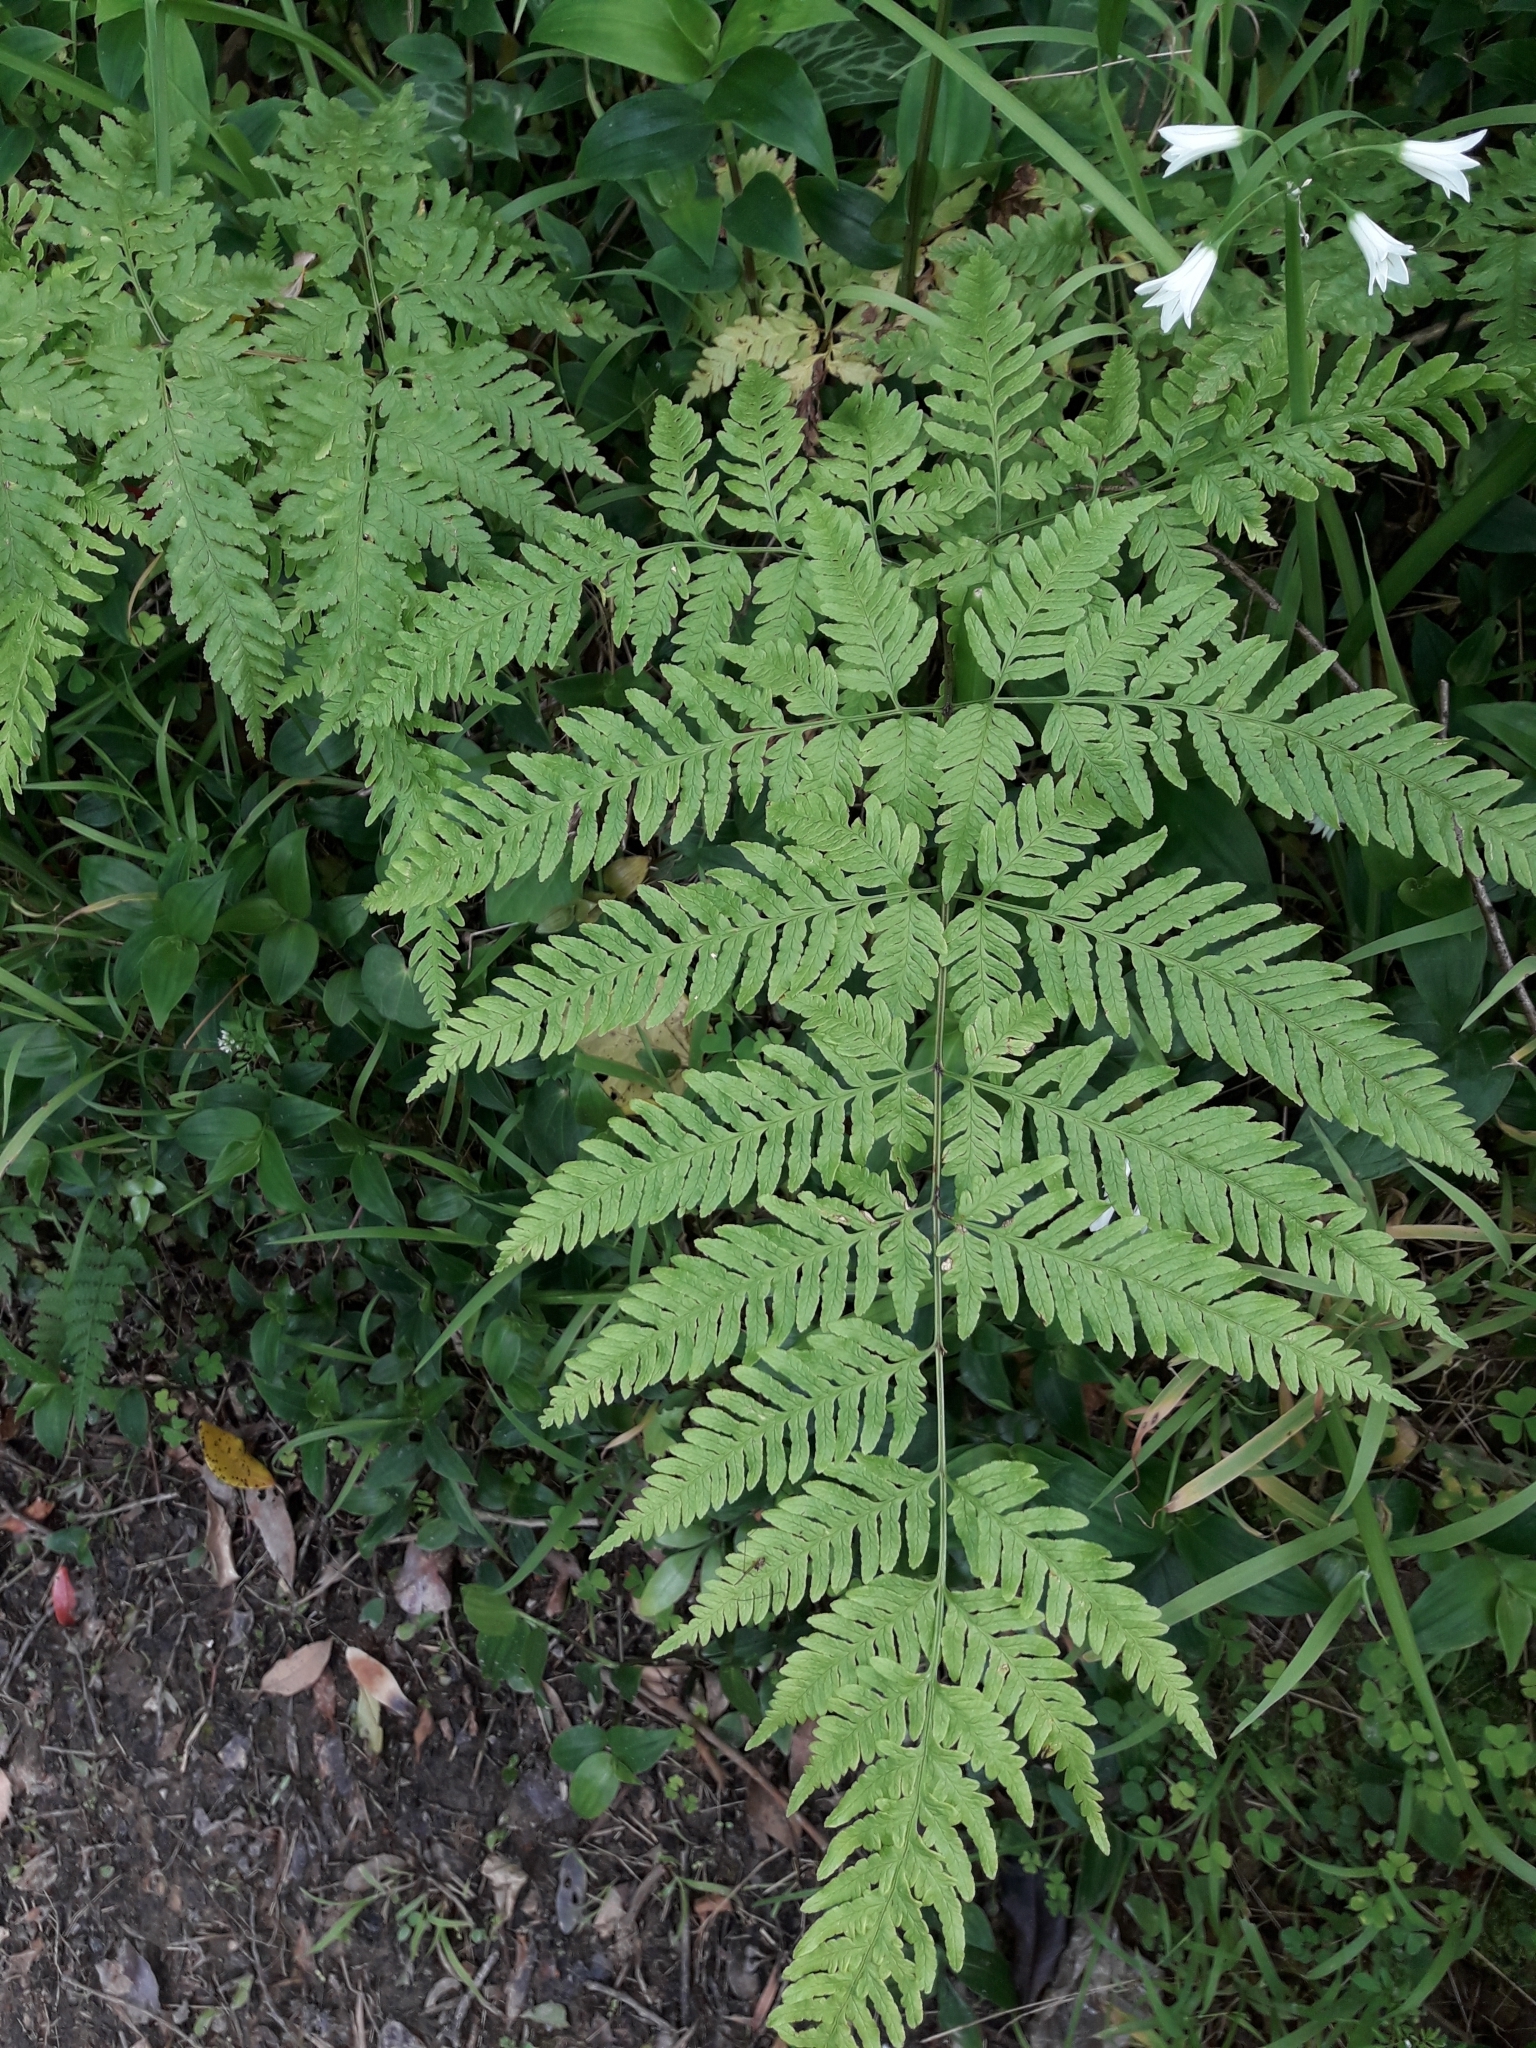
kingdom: Plantae
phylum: Tracheophyta
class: Polypodiopsida
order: Polypodiales
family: Pteridaceae
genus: Pteris
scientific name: Pteris tremula
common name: Australian brake
